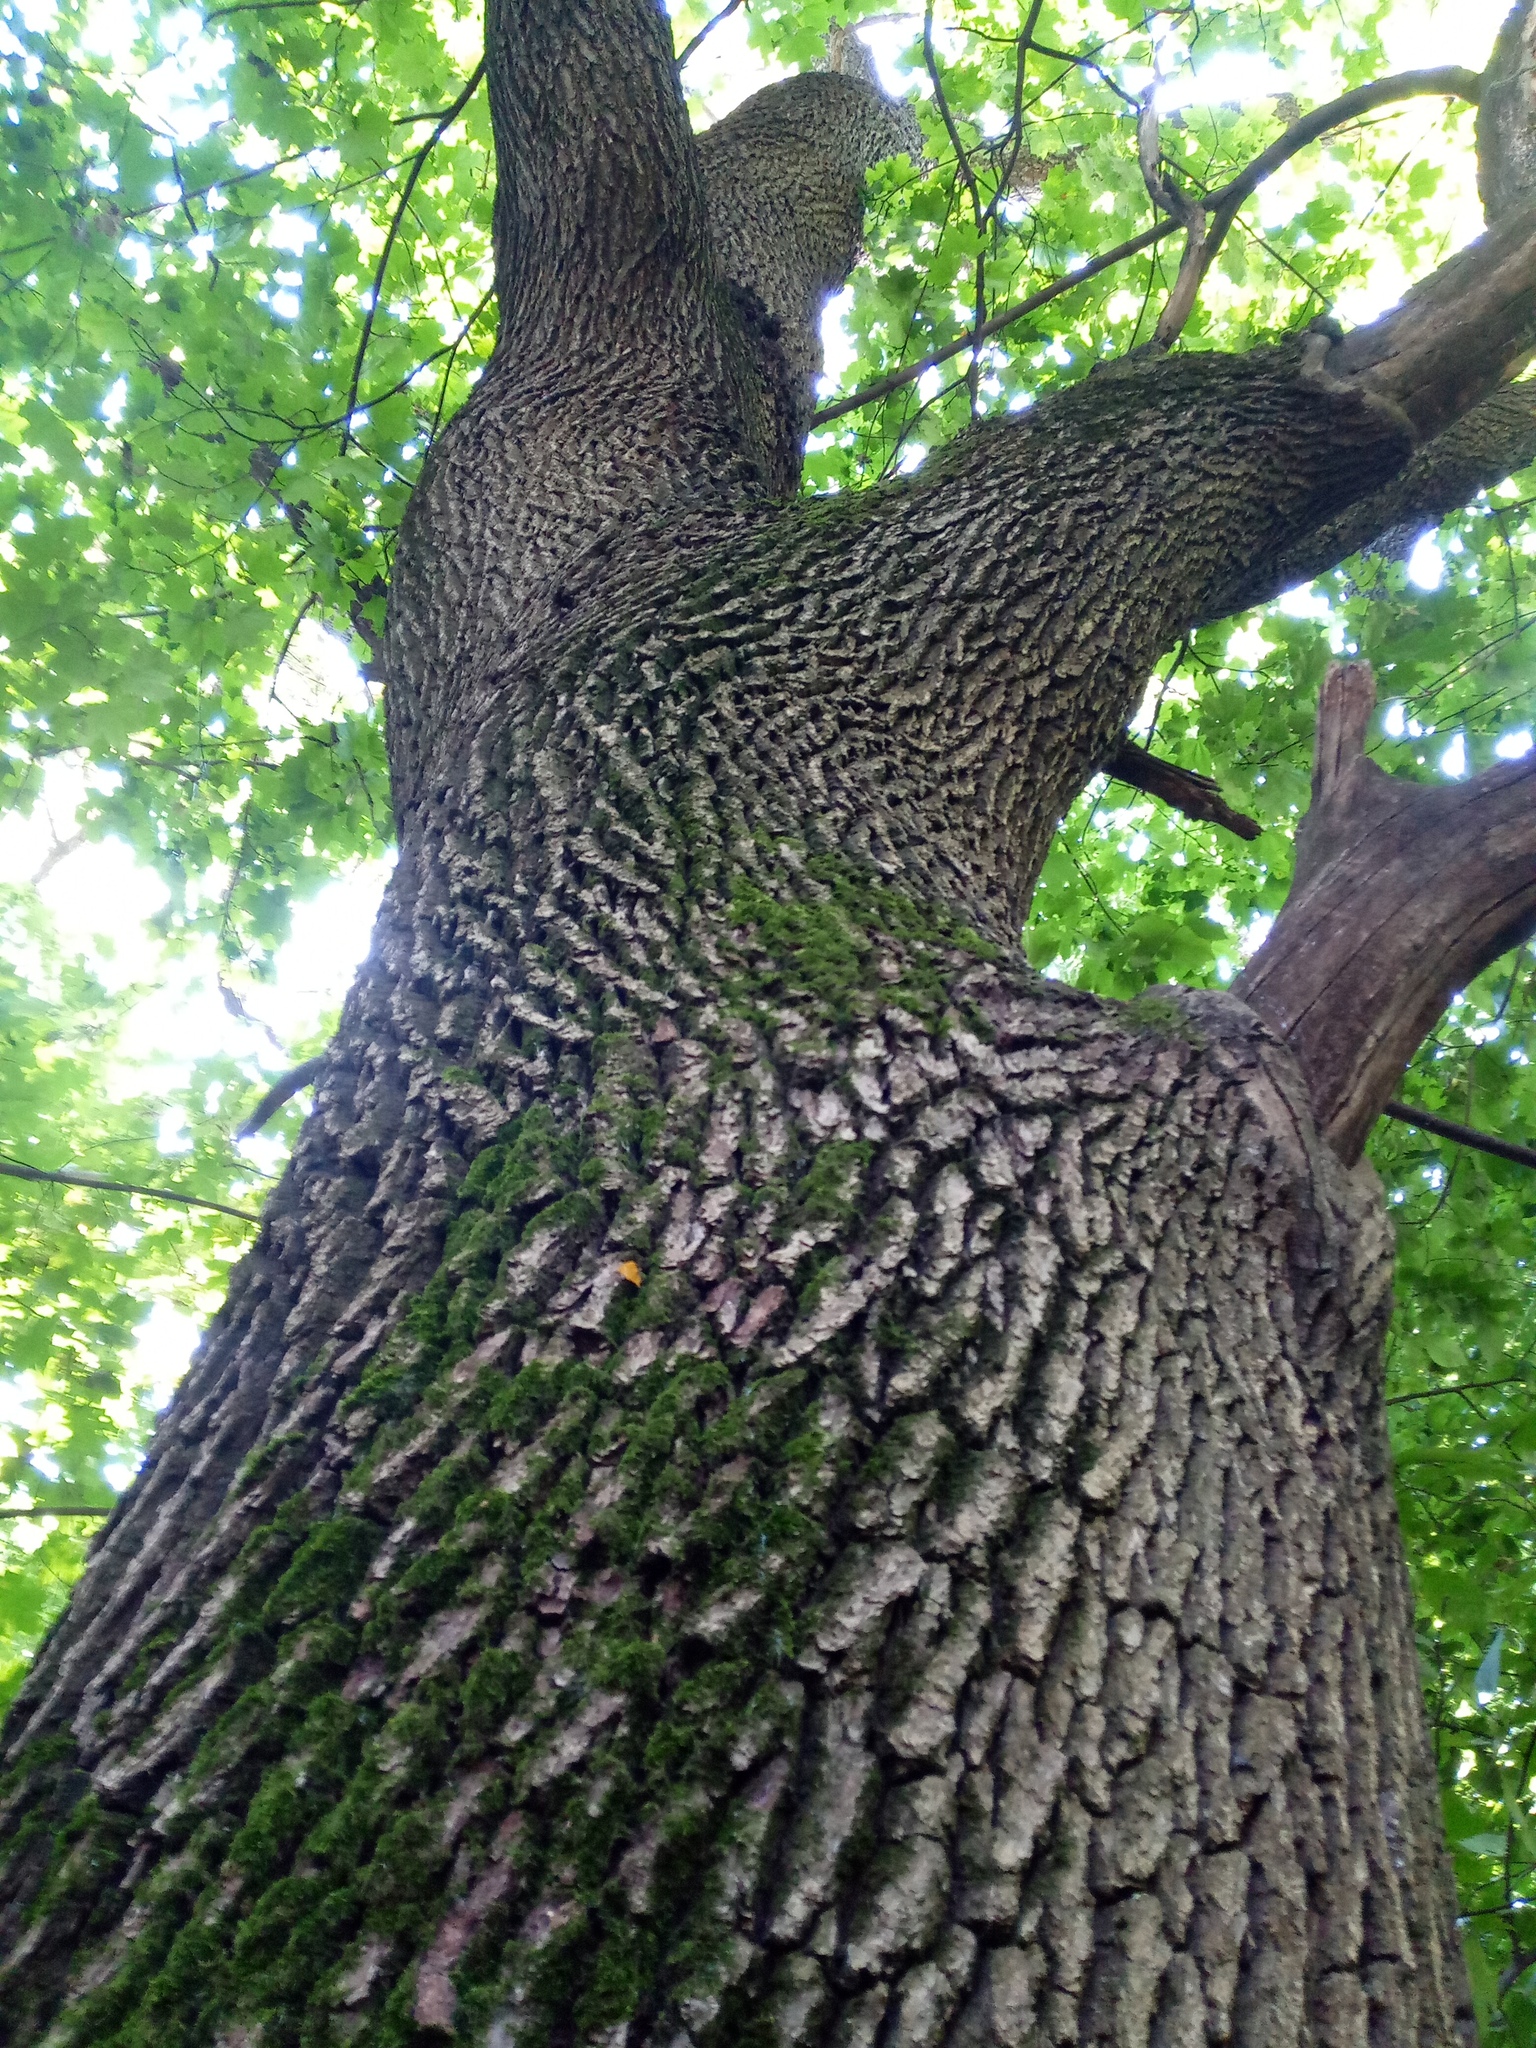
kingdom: Plantae
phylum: Tracheophyta
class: Magnoliopsida
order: Fagales
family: Fagaceae
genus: Quercus
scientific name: Quercus robur
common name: Pedunculate oak
